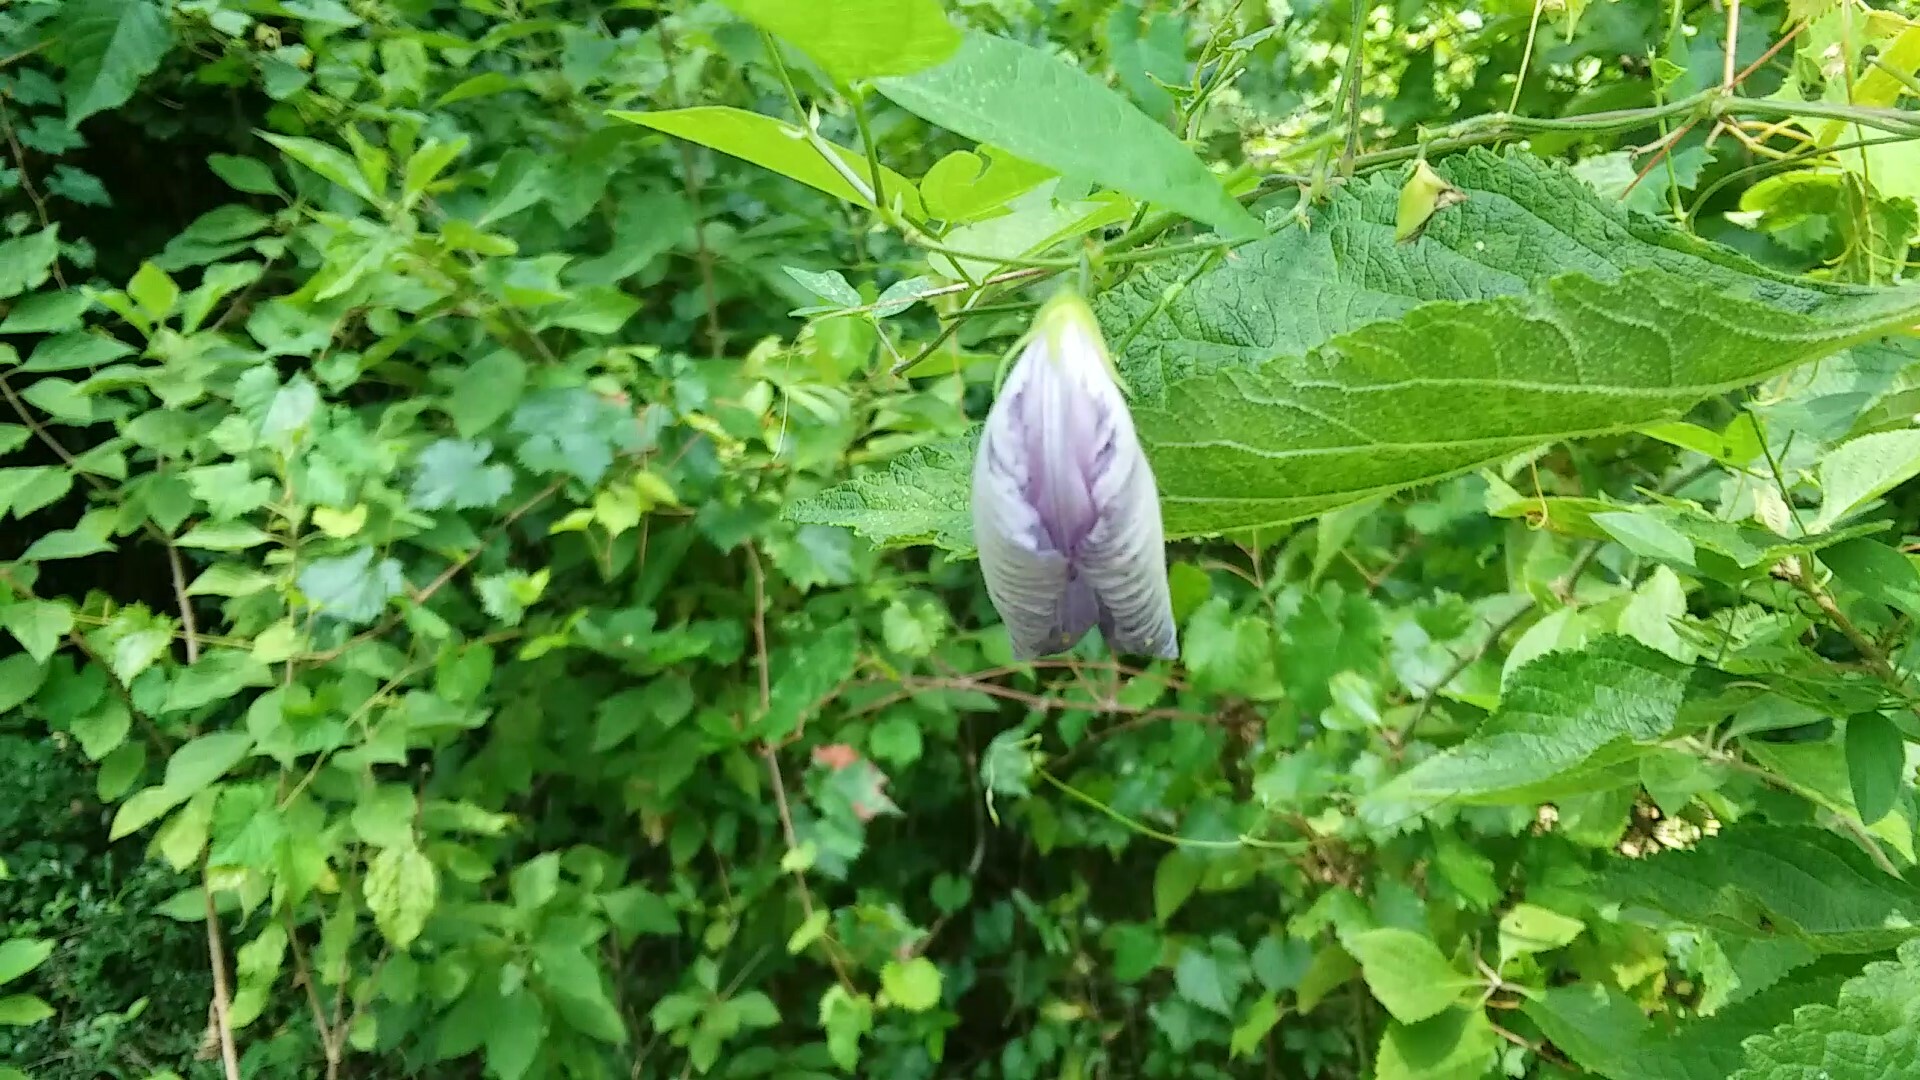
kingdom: Plantae
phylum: Tracheophyta
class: Magnoliopsida
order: Fabales
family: Fabaceae
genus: Centrosema
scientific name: Centrosema virginianum
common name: Butterfly-pea
